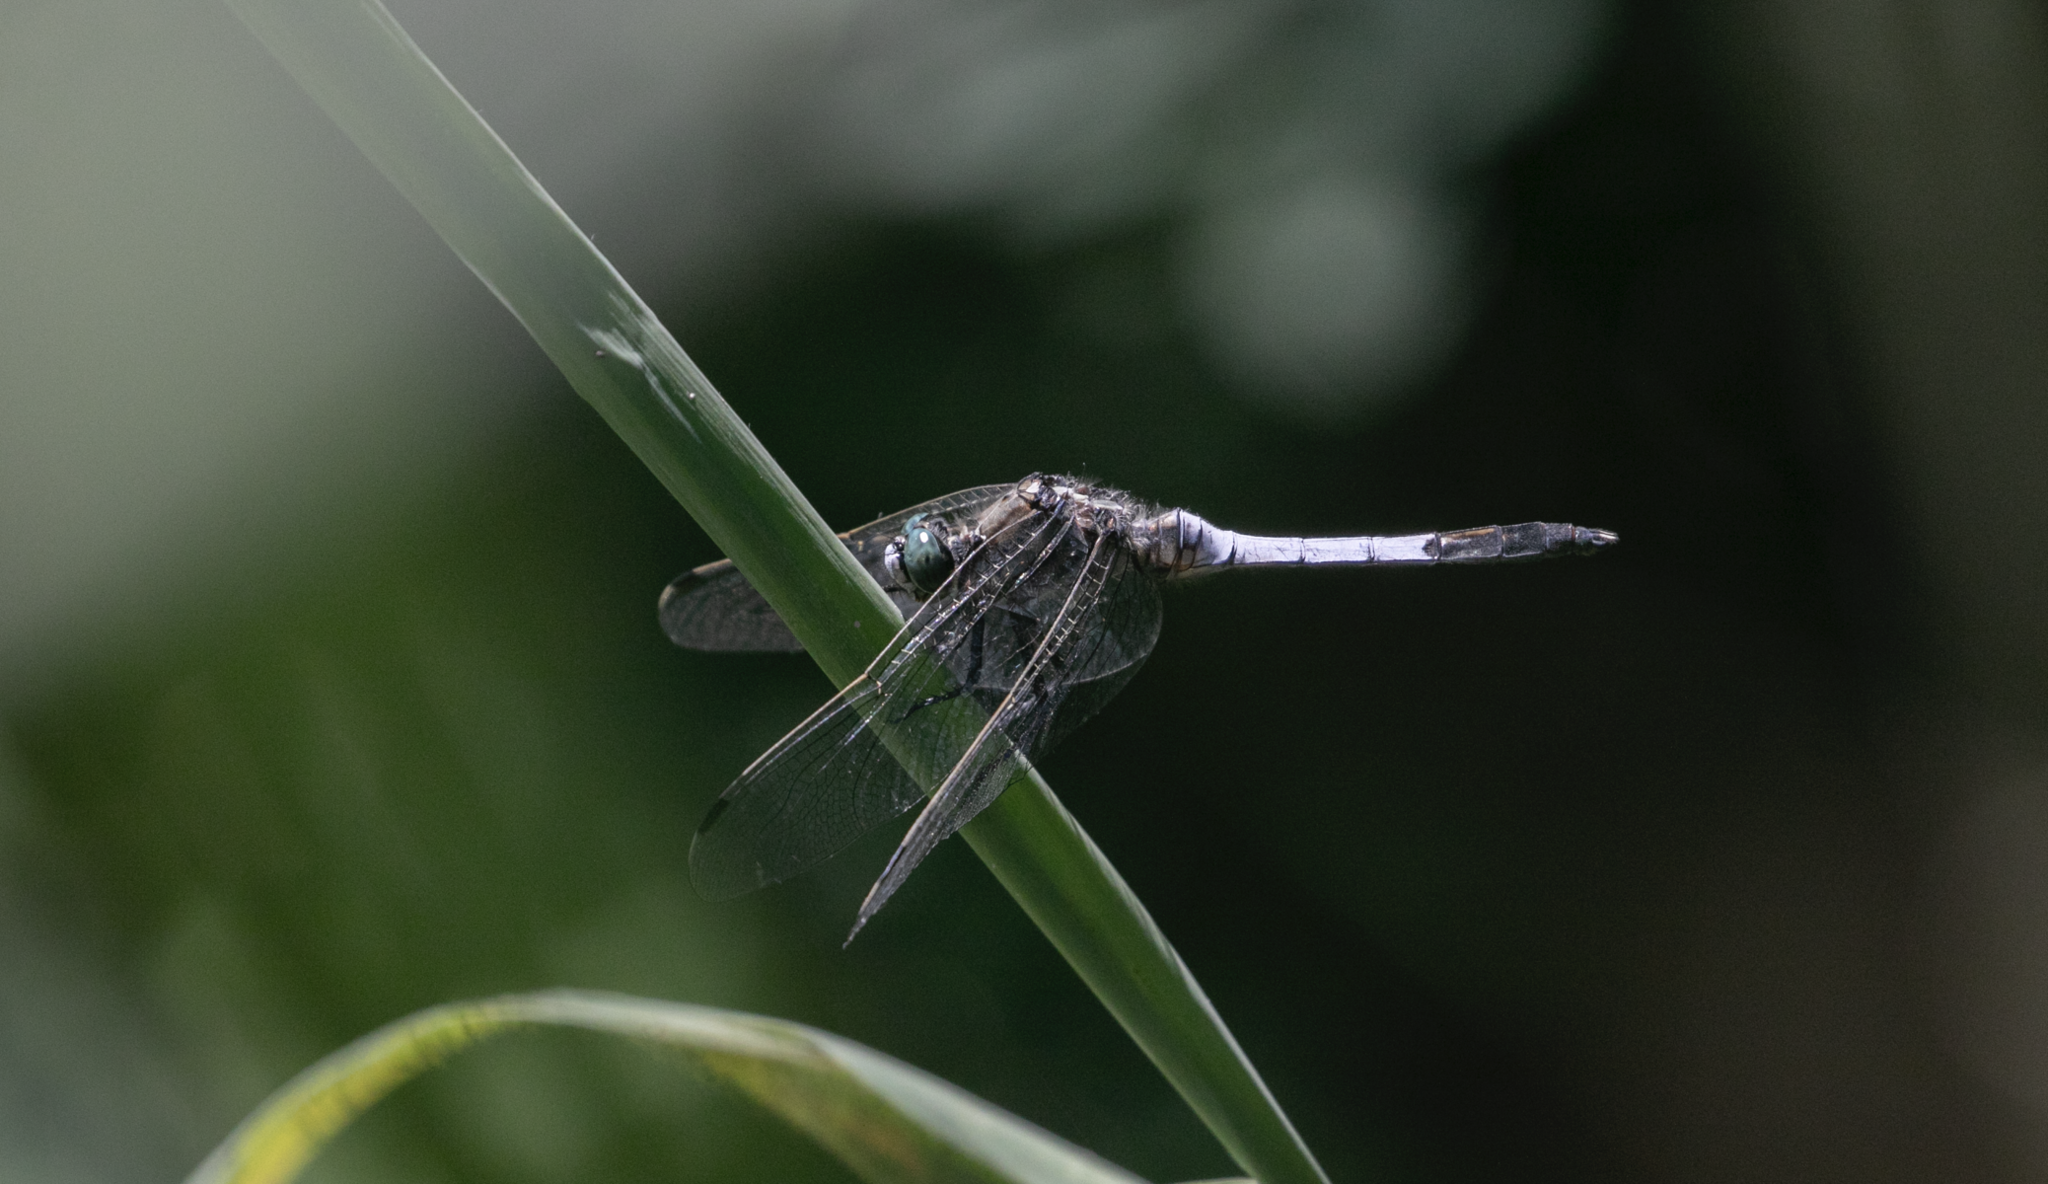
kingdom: Animalia
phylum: Arthropoda
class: Insecta
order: Odonata
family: Libellulidae
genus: Orthetrum
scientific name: Orthetrum albistylum
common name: White-tailed skimmer
